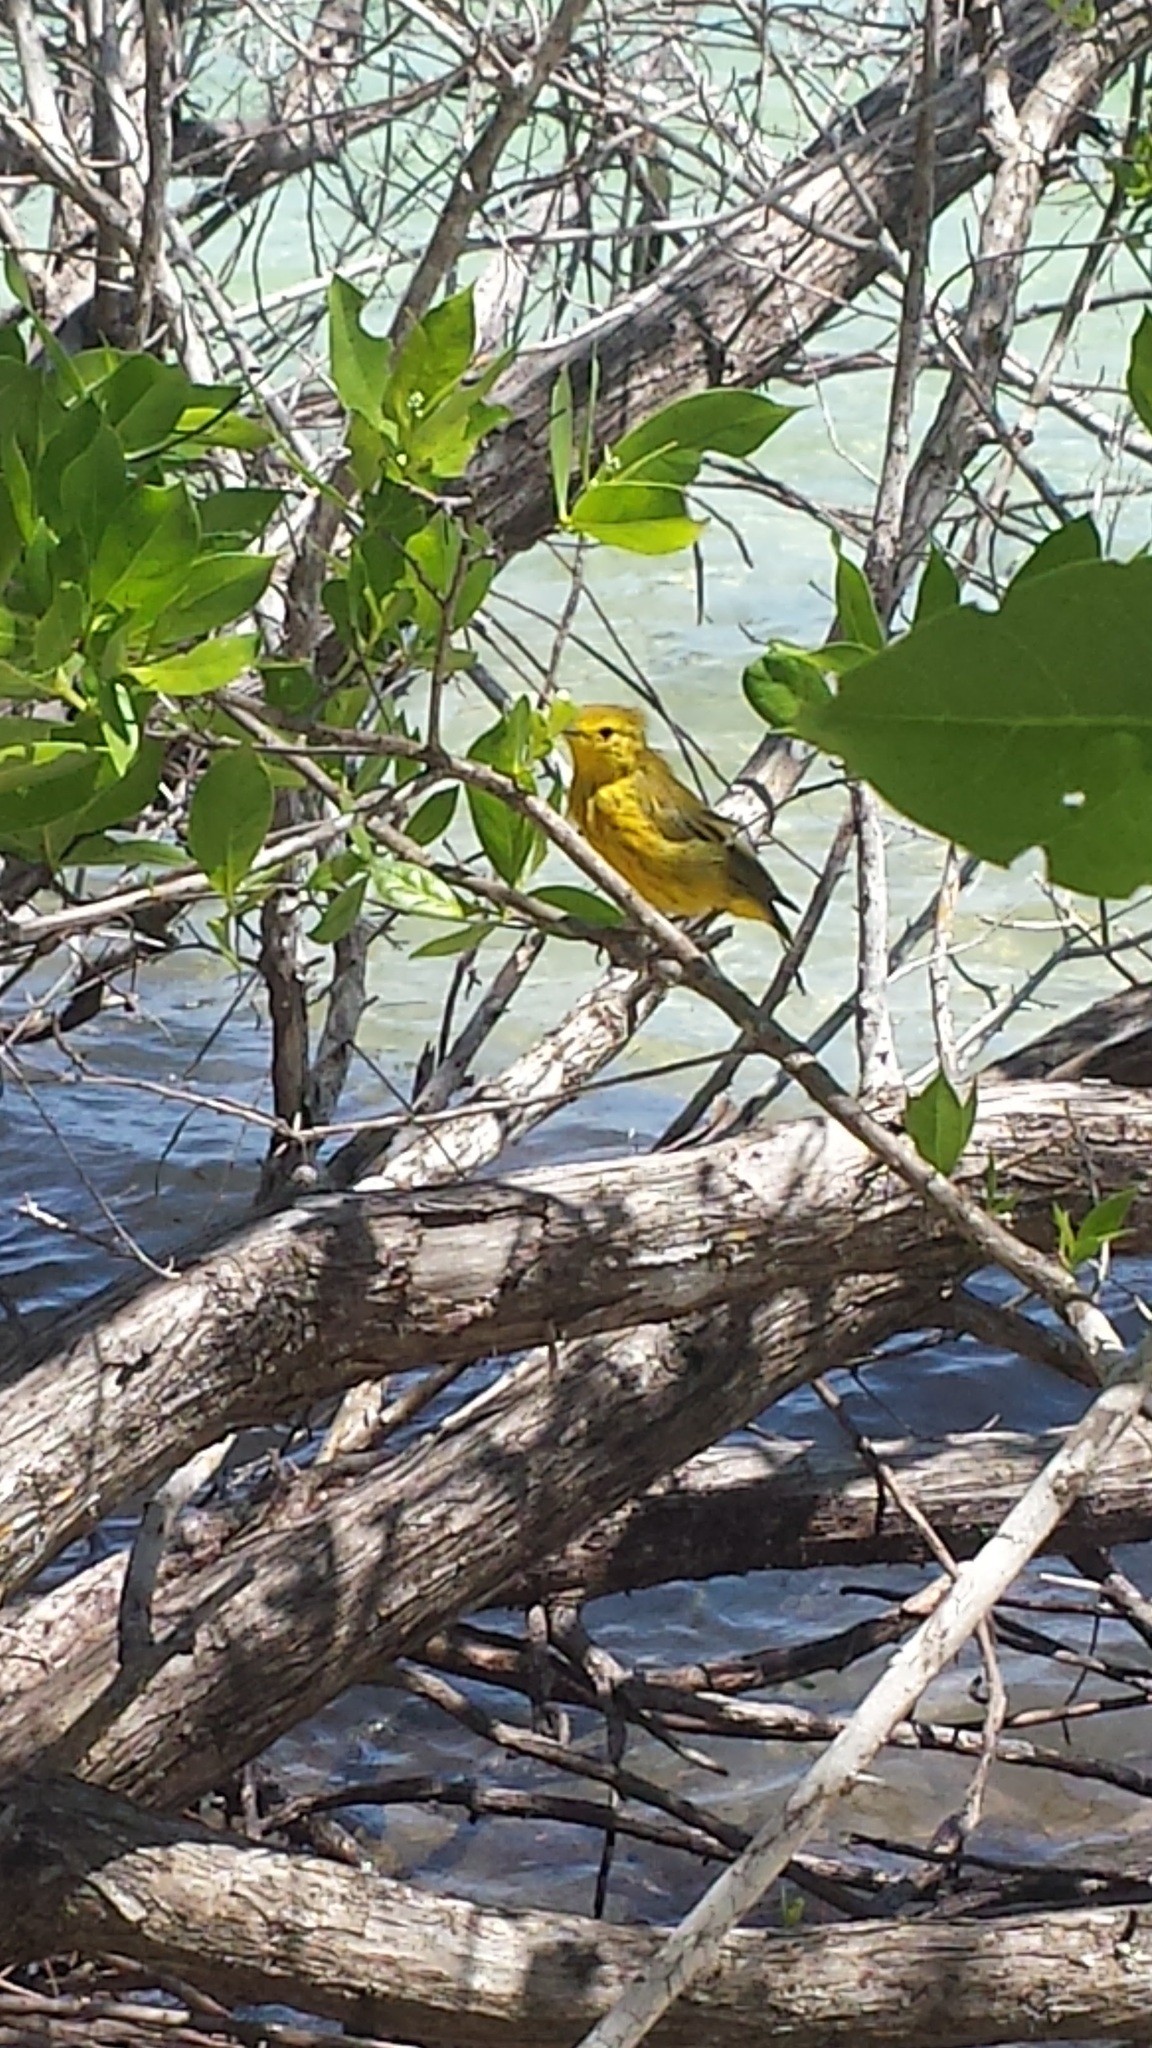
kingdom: Animalia
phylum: Chordata
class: Aves
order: Passeriformes
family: Parulidae
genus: Setophaga
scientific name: Setophaga petechia
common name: Yellow warbler
